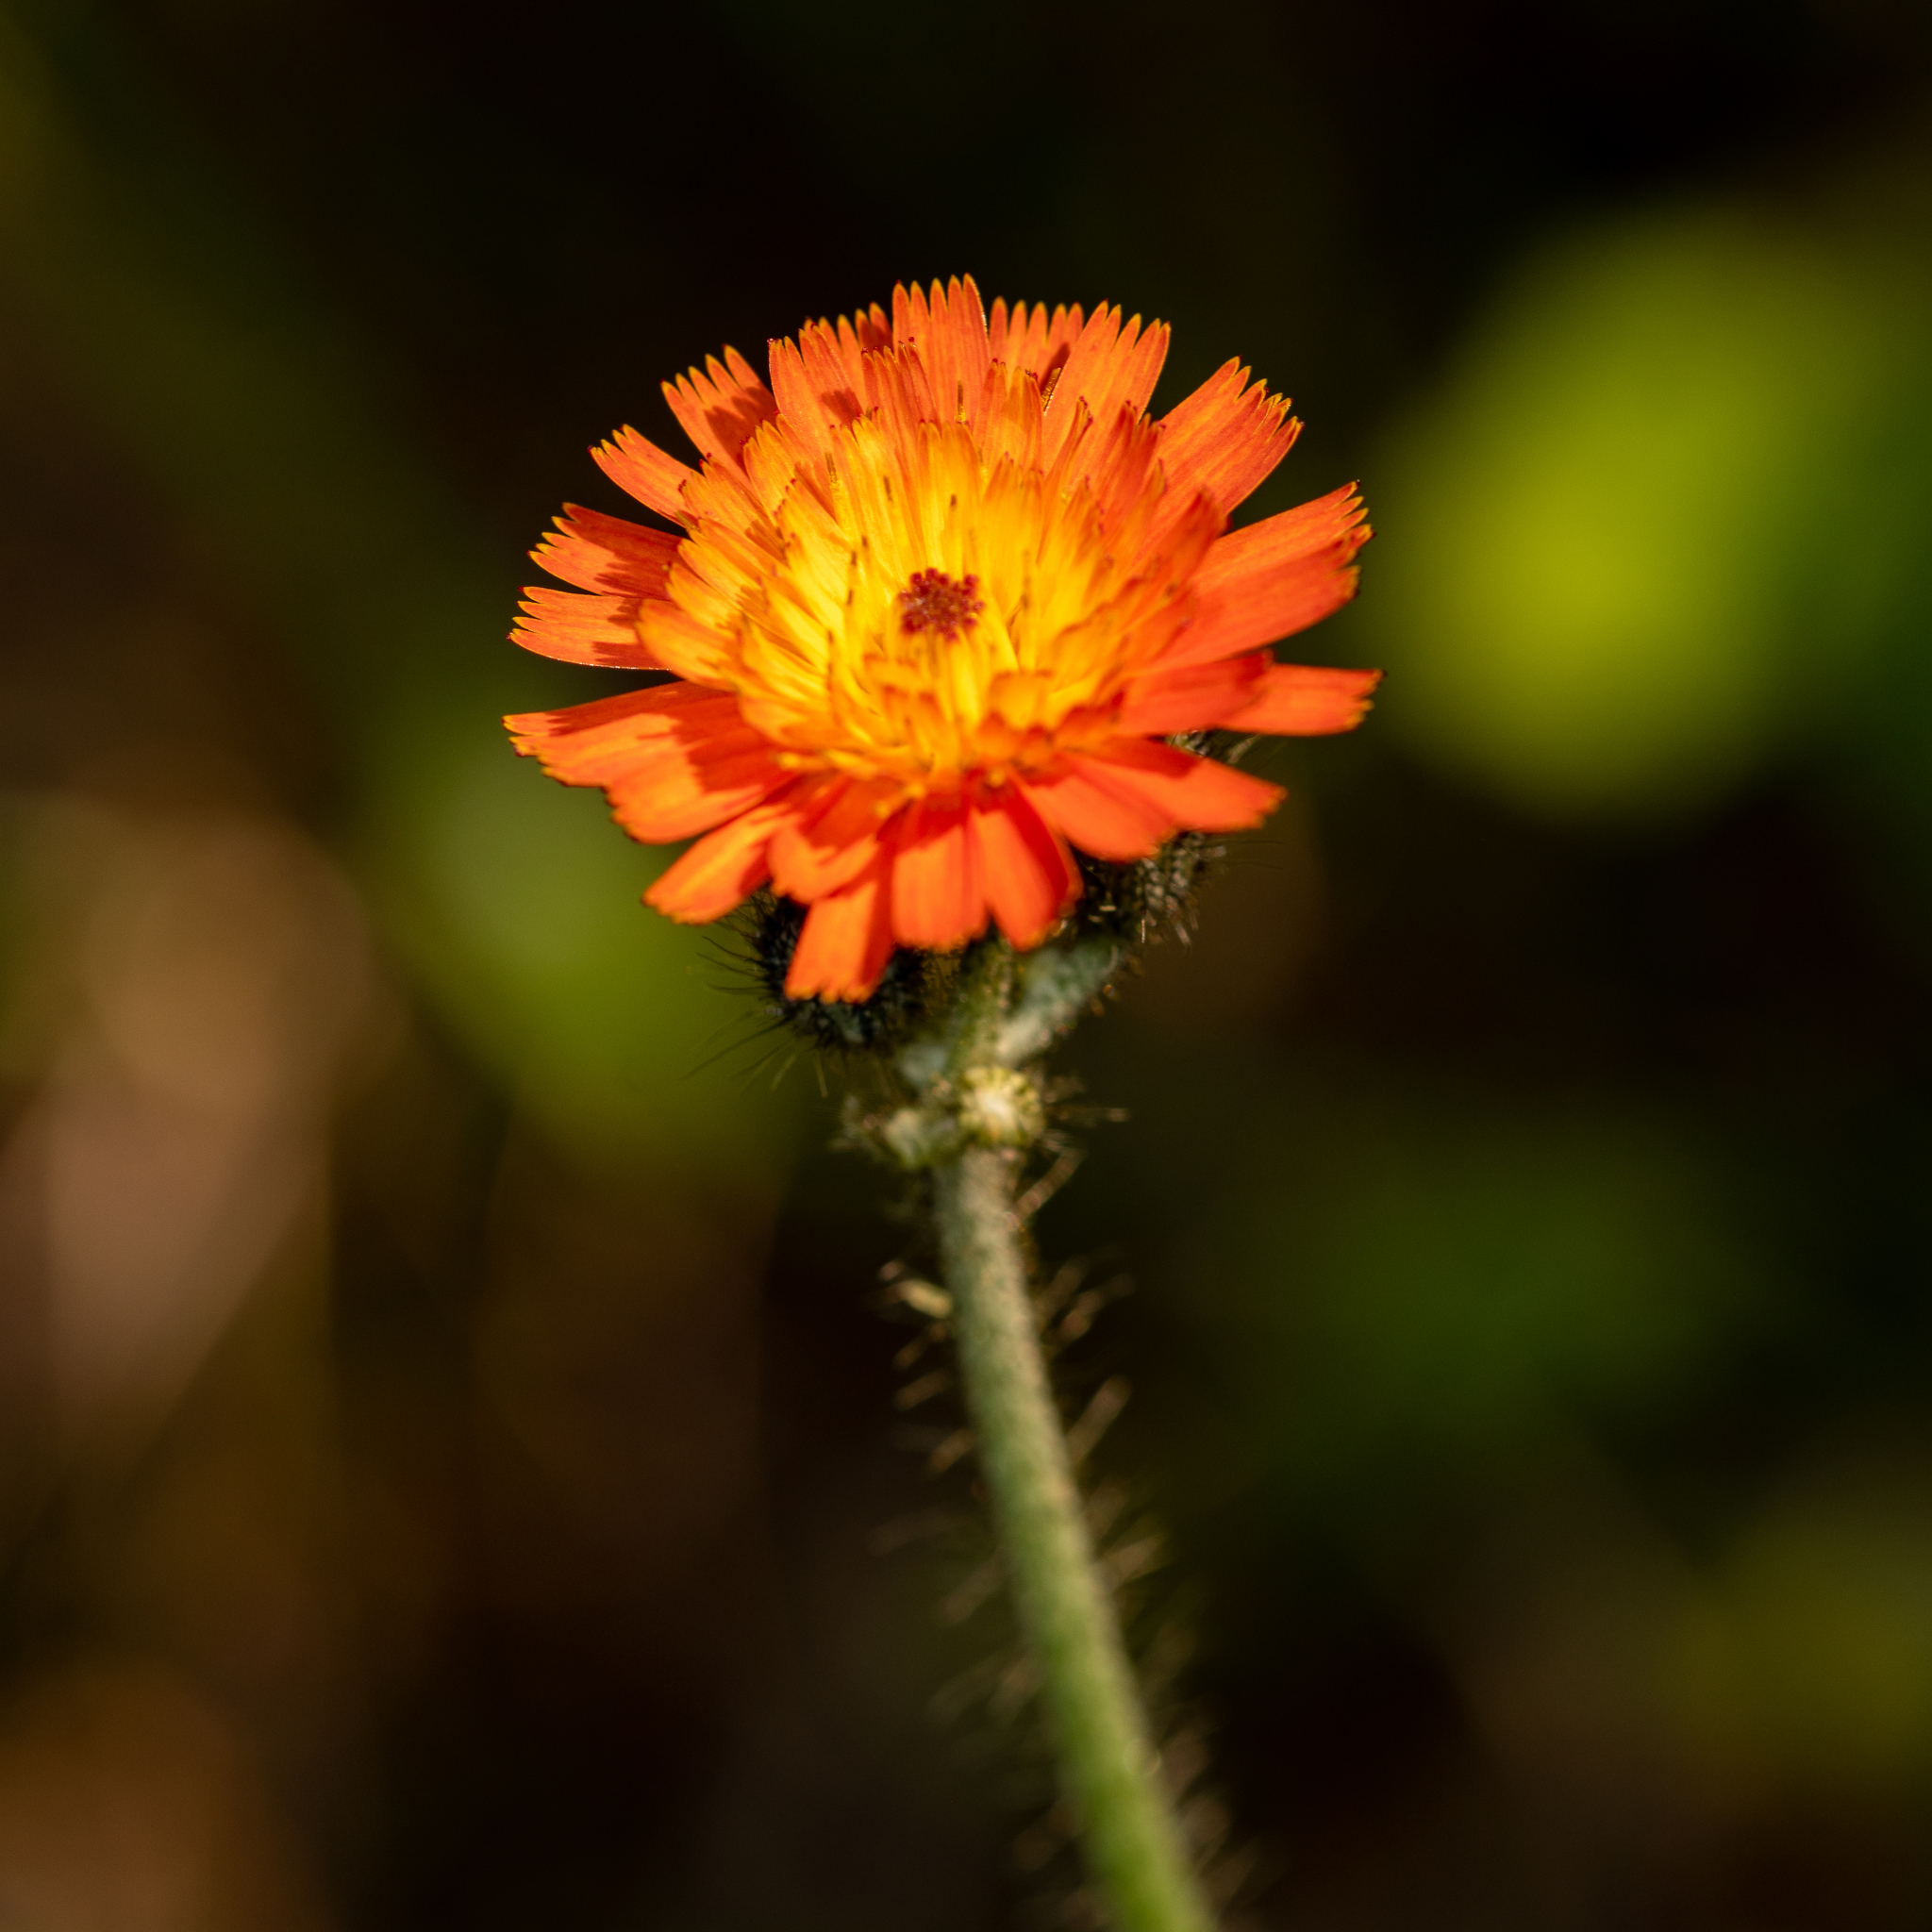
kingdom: Plantae
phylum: Tracheophyta
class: Magnoliopsida
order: Asterales
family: Asteraceae
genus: Pilosella
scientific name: Pilosella aurantiaca
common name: Fox-and-cubs
